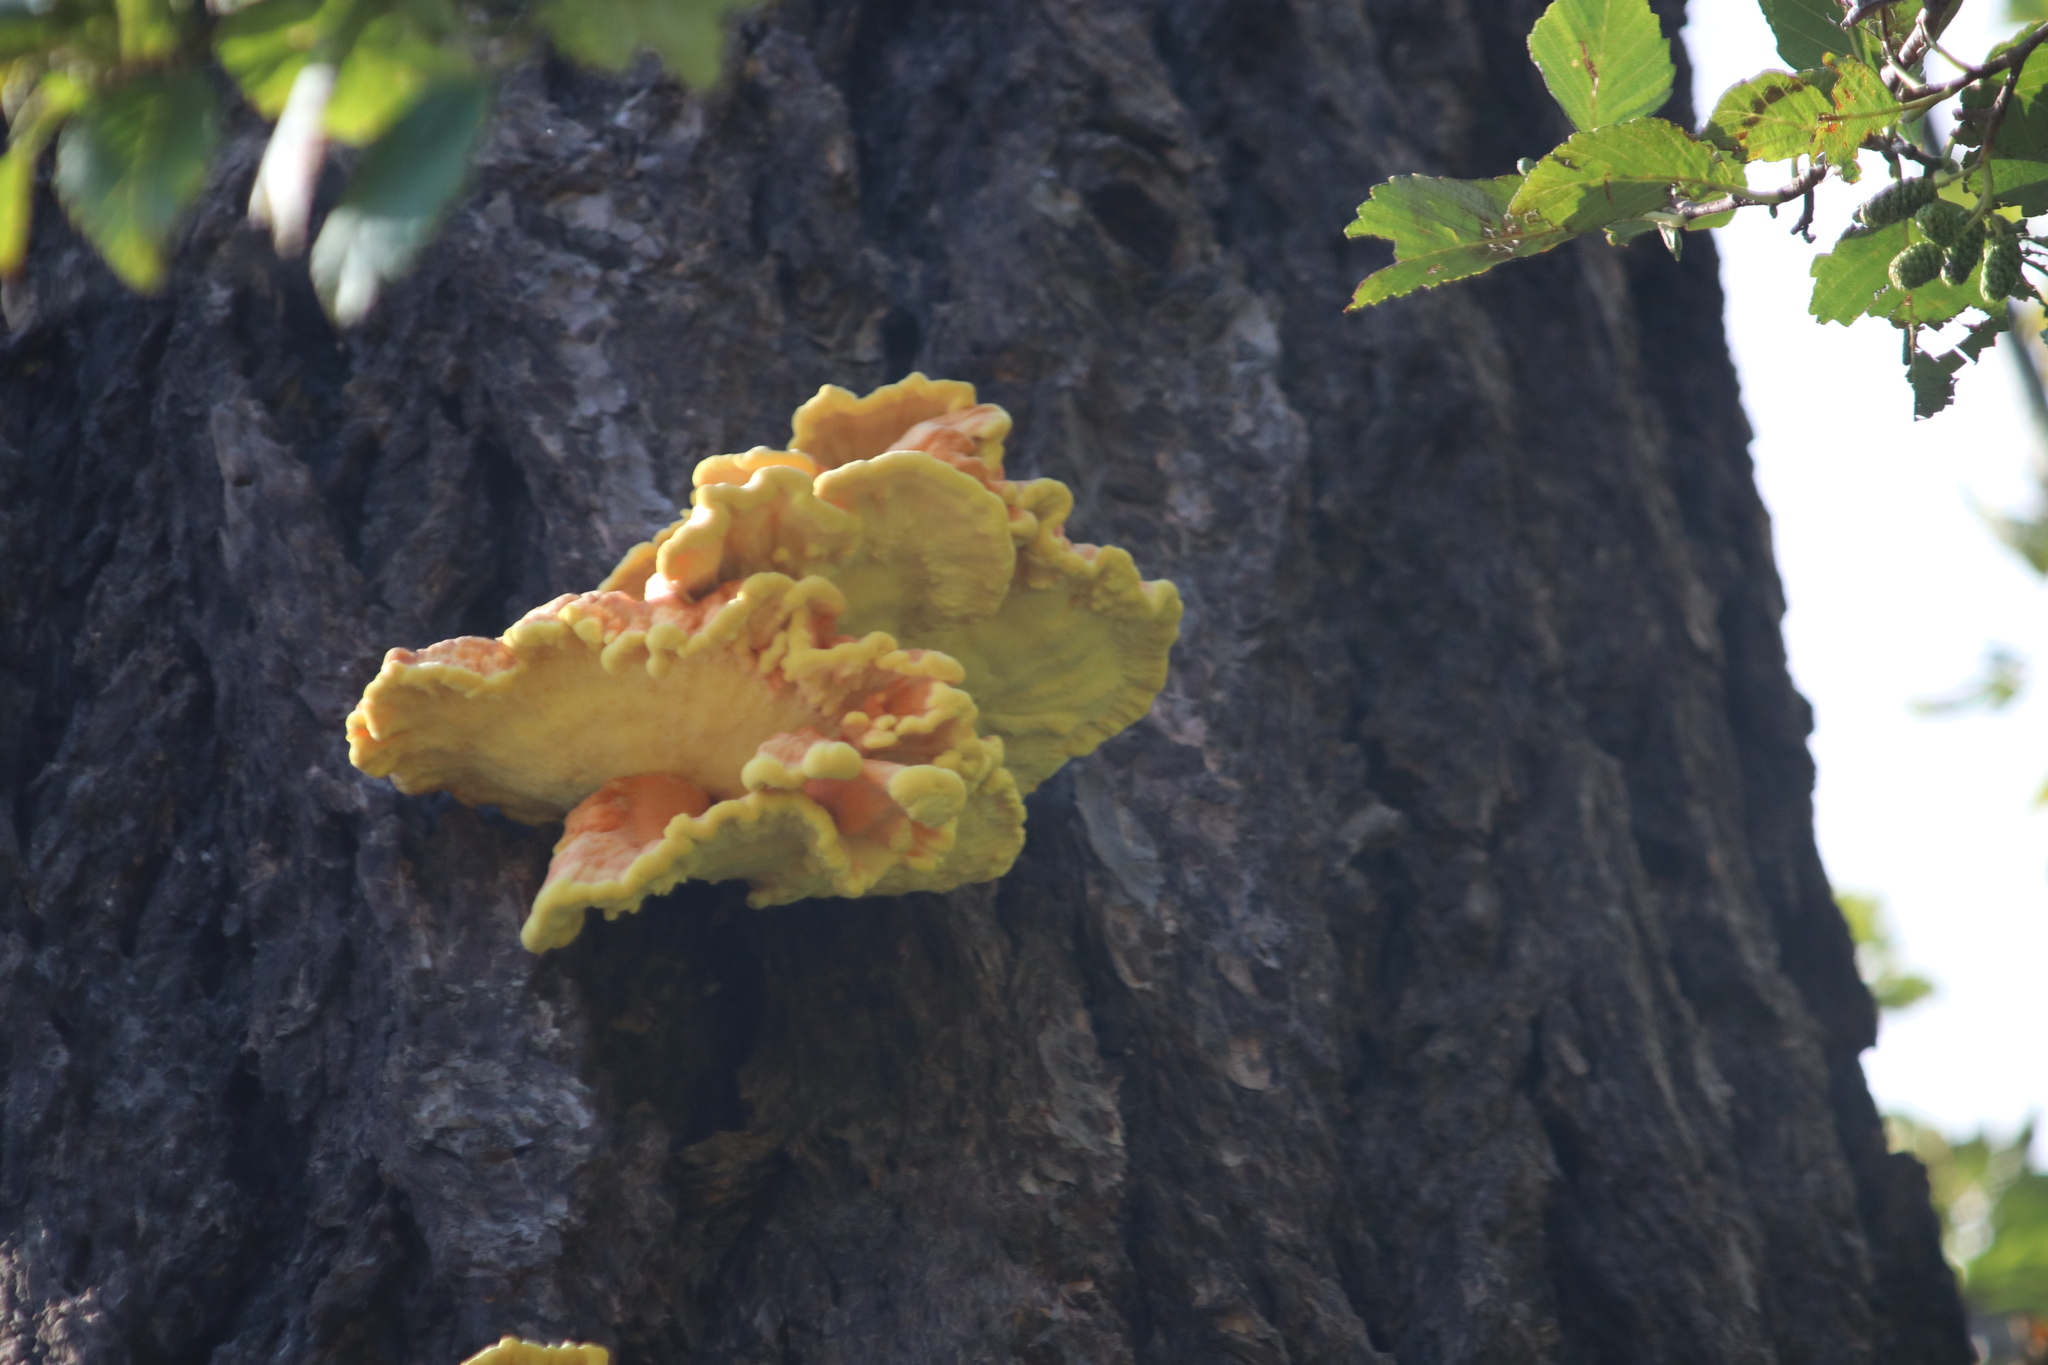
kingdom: Fungi
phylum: Basidiomycota
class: Agaricomycetes
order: Polyporales
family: Laetiporaceae
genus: Laetiporus
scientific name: Laetiporus conifericola
